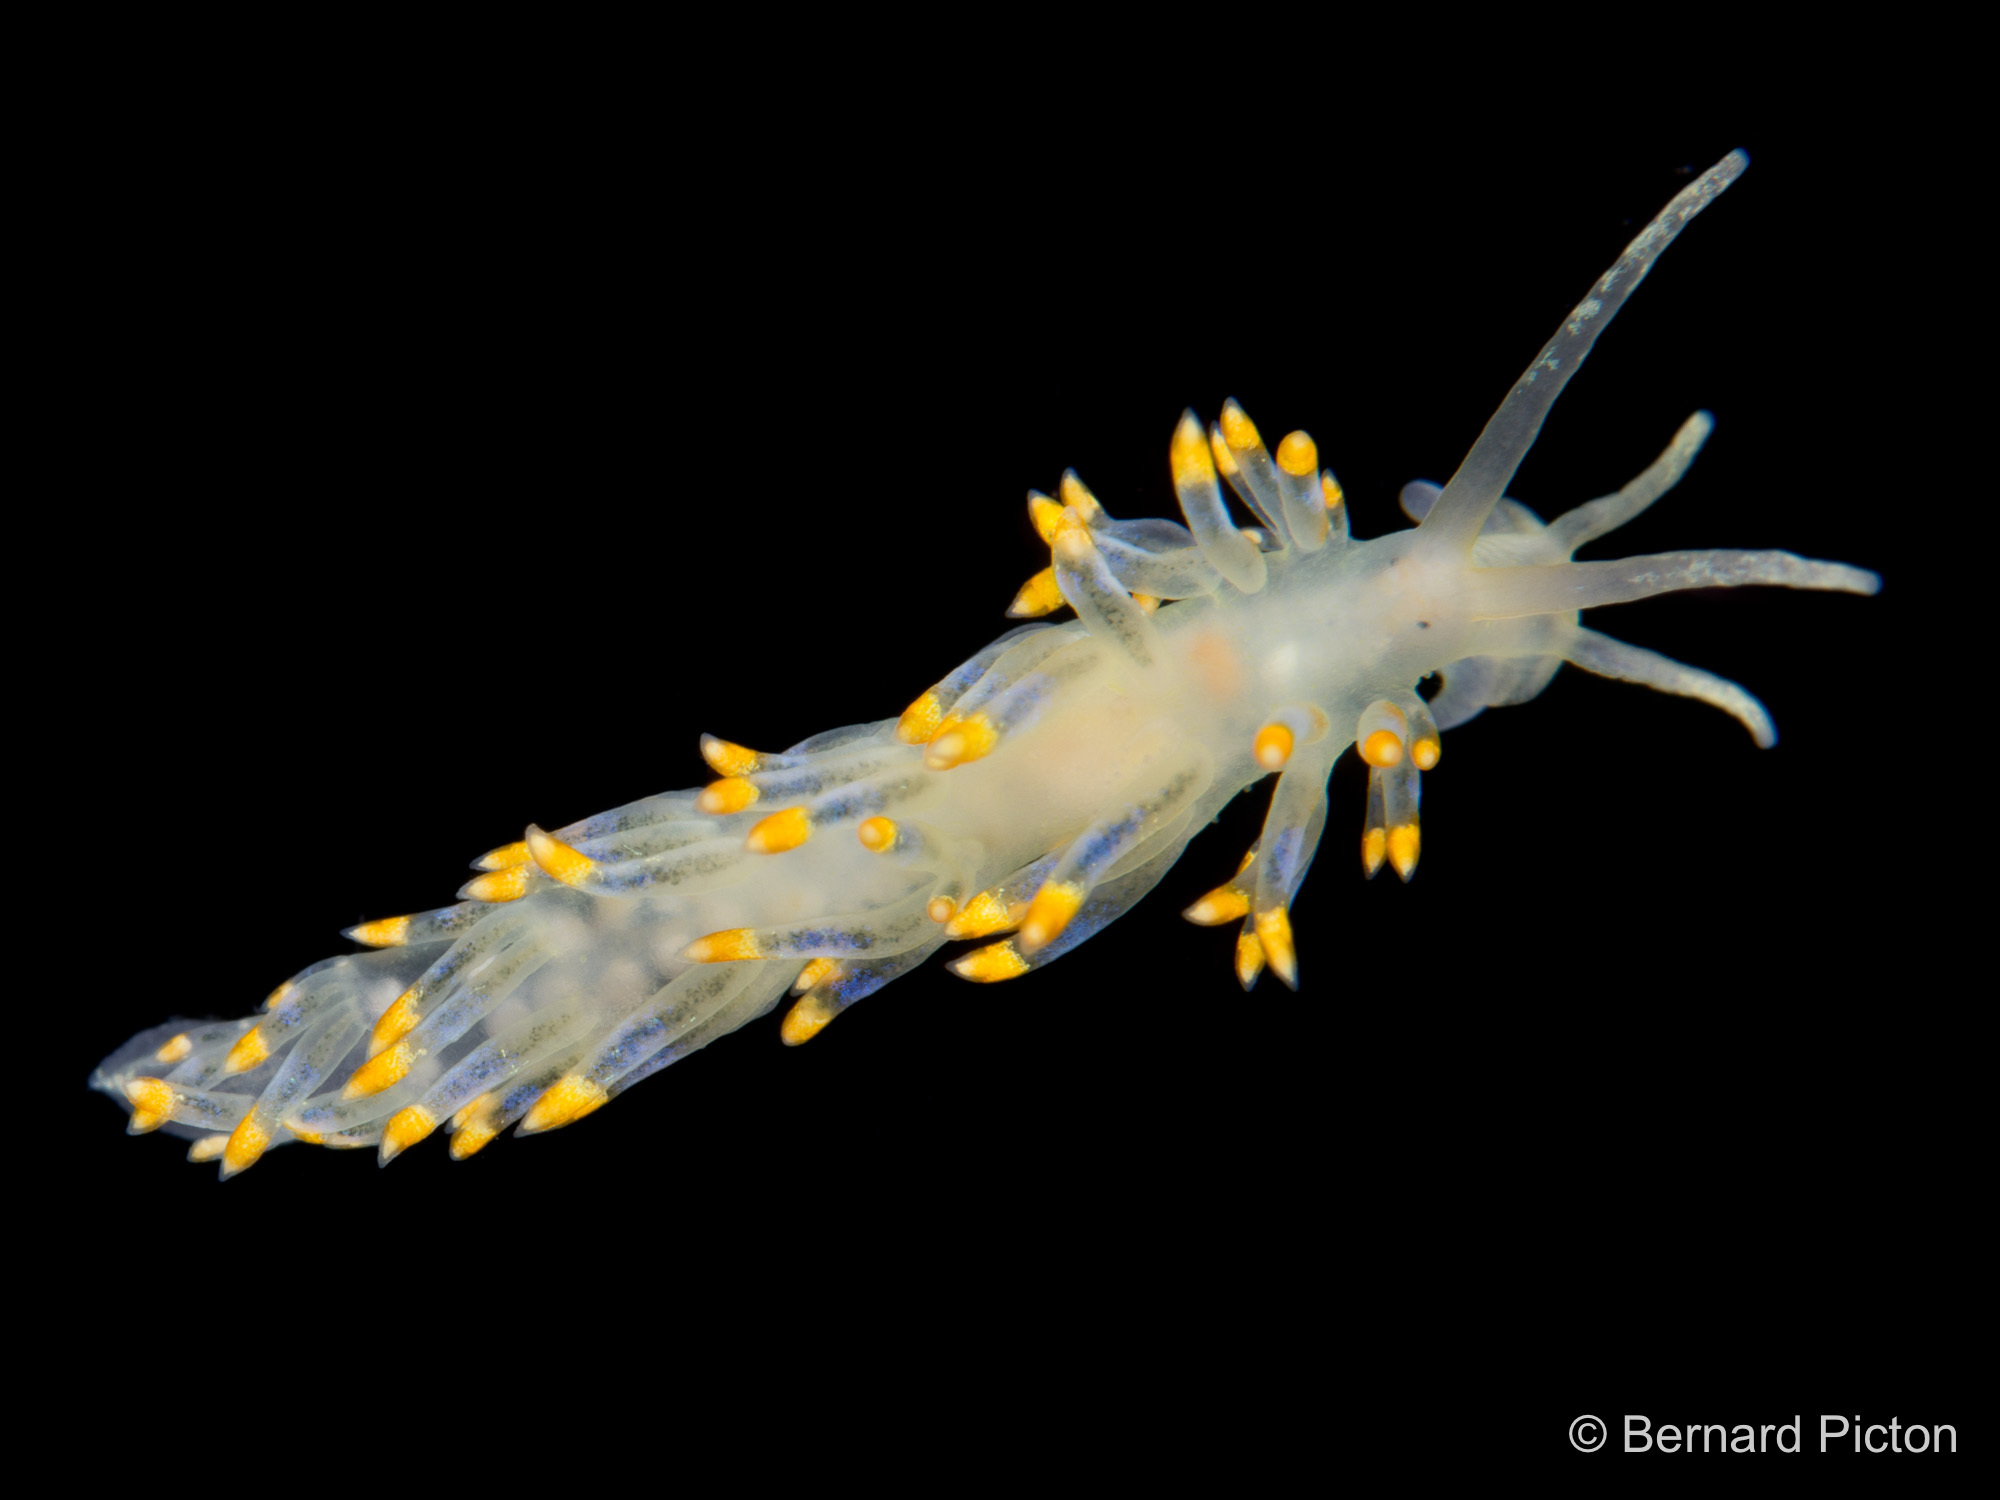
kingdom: Animalia
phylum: Mollusca
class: Gastropoda
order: Nudibranchia
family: Trinchesiidae
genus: Trinchesia
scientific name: Trinchesia caerulea
